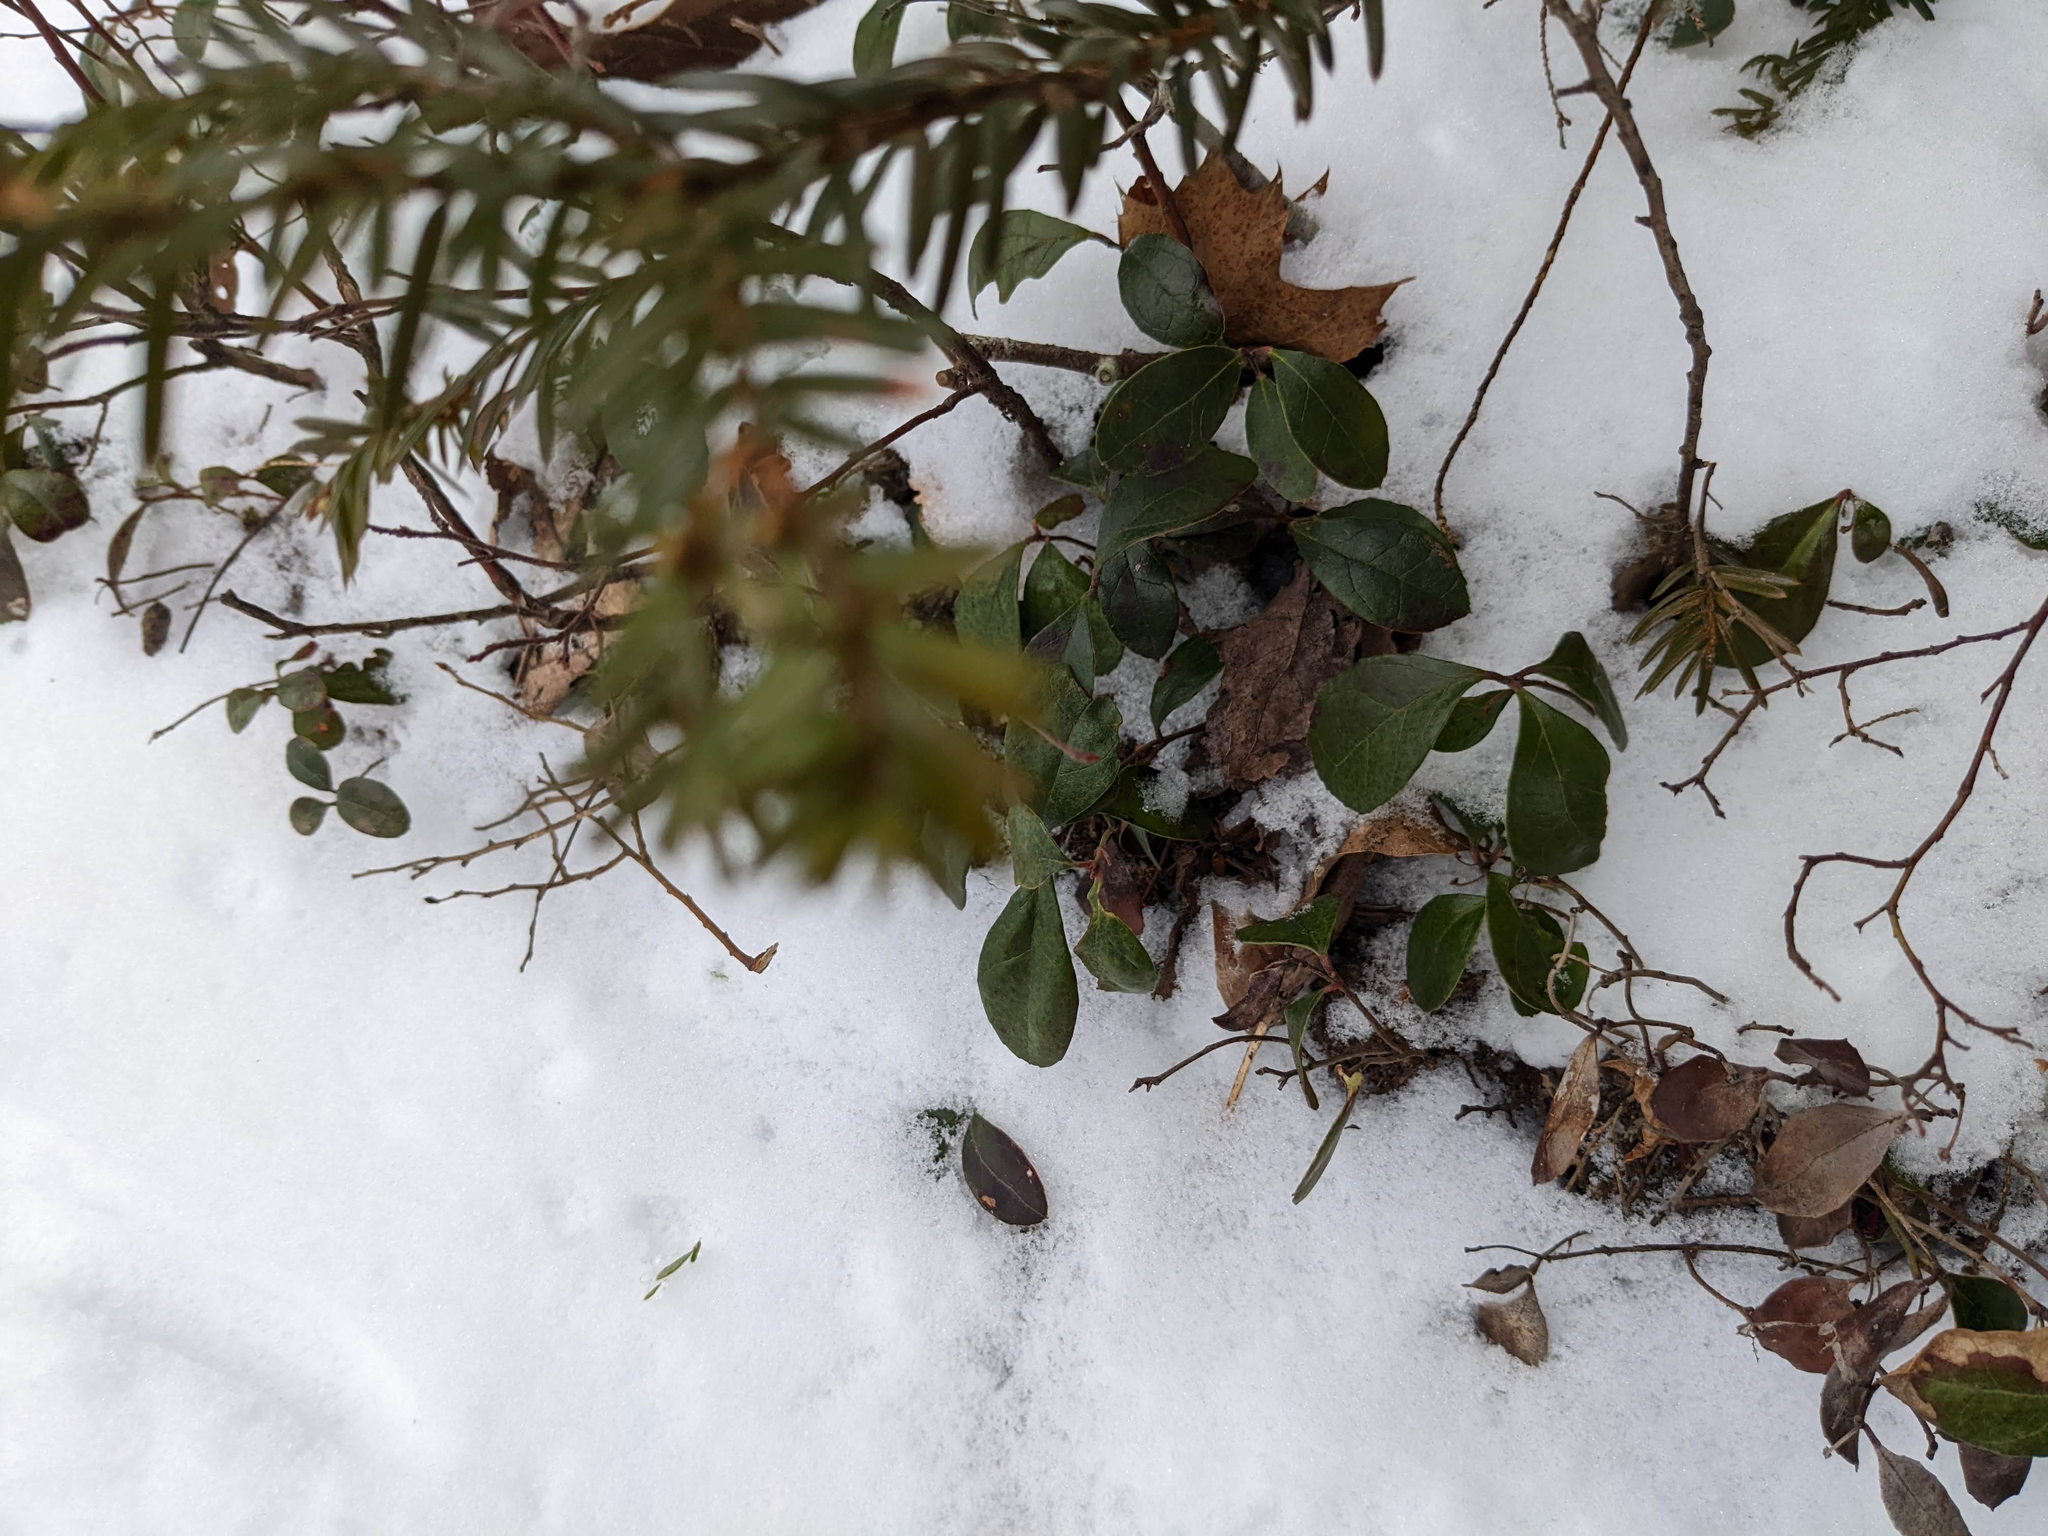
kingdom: Plantae
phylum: Tracheophyta
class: Magnoliopsida
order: Ericales
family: Ericaceae
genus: Gaultheria
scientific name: Gaultheria procumbens
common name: Checkerberry
